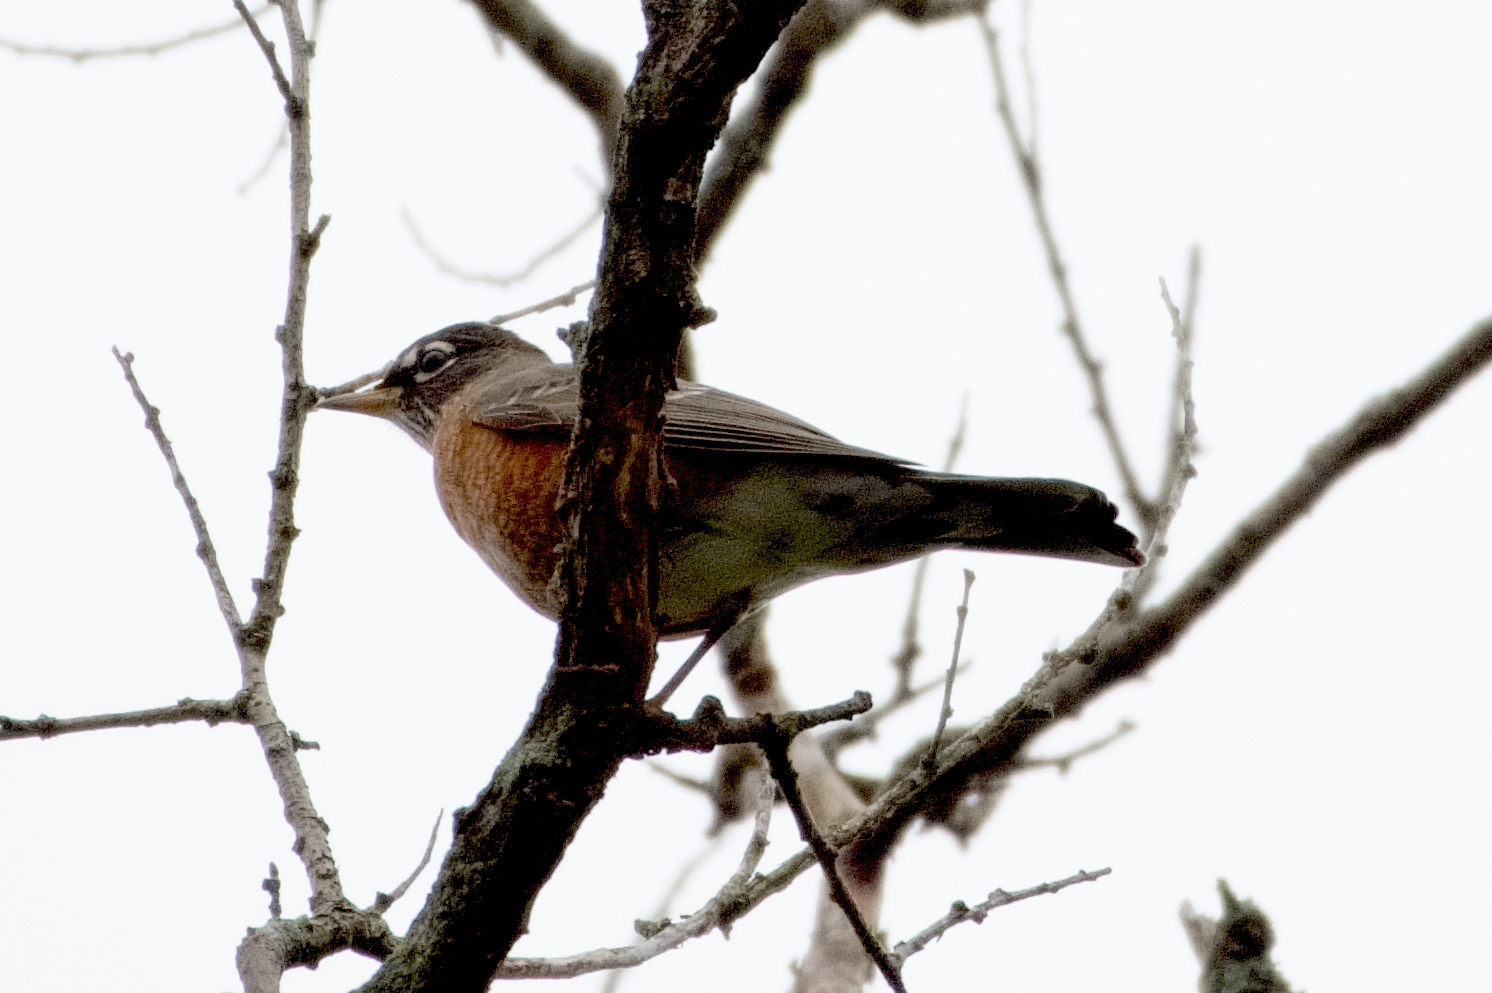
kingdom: Animalia
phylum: Chordata
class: Aves
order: Passeriformes
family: Turdidae
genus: Turdus
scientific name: Turdus migratorius
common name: American robin
